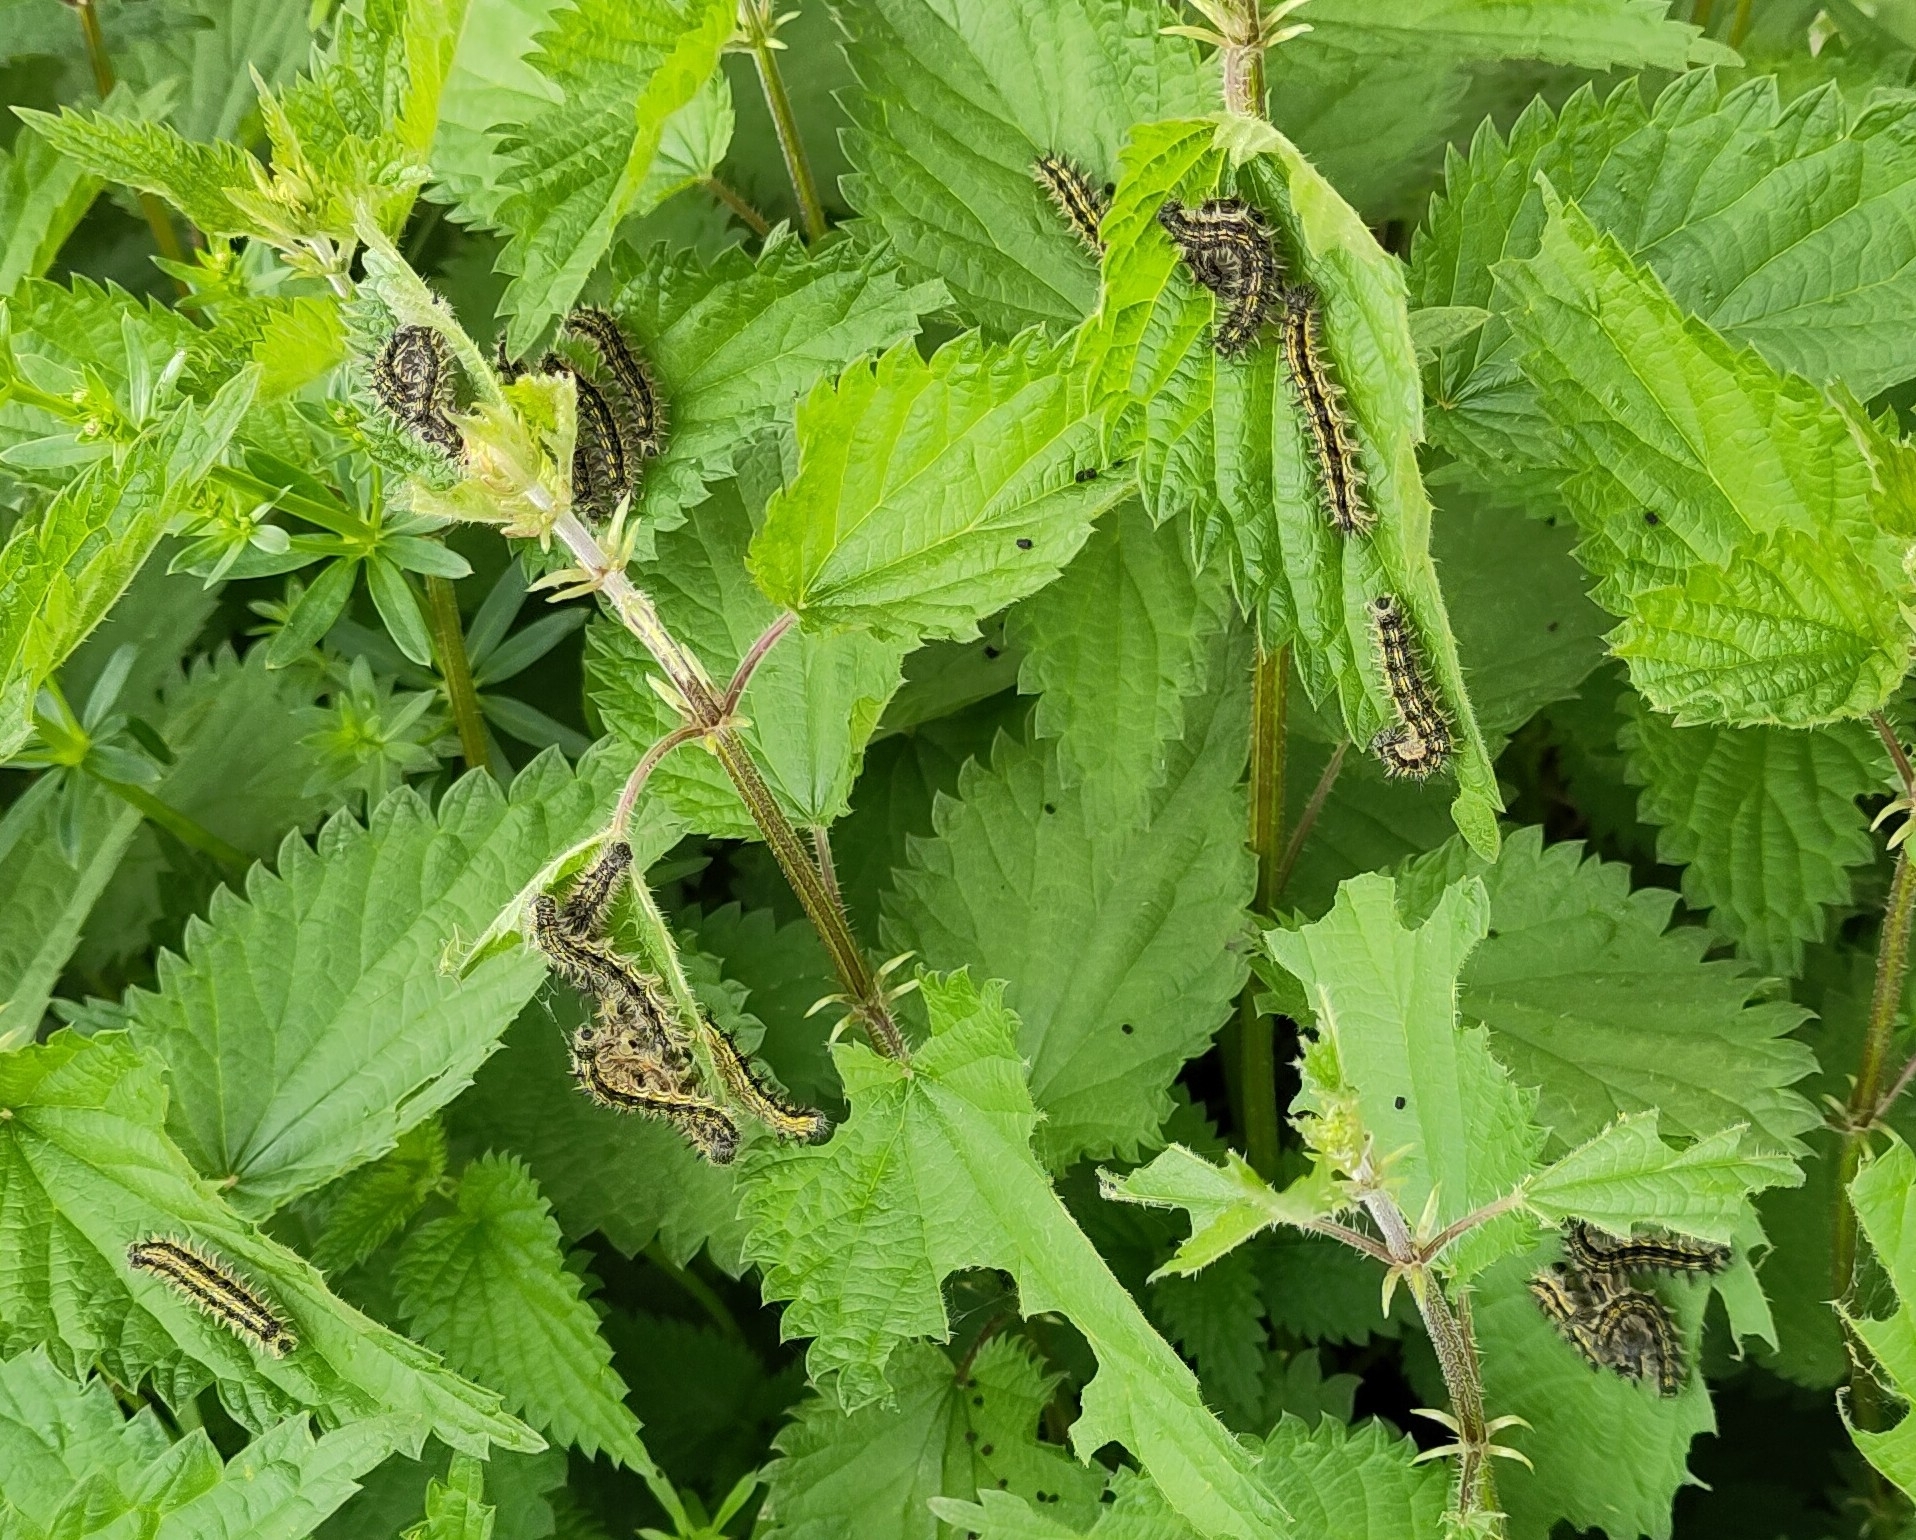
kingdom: Animalia
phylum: Arthropoda
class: Insecta
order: Lepidoptera
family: Nymphalidae
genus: Aglais
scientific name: Aglais urticae
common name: Small tortoiseshell
